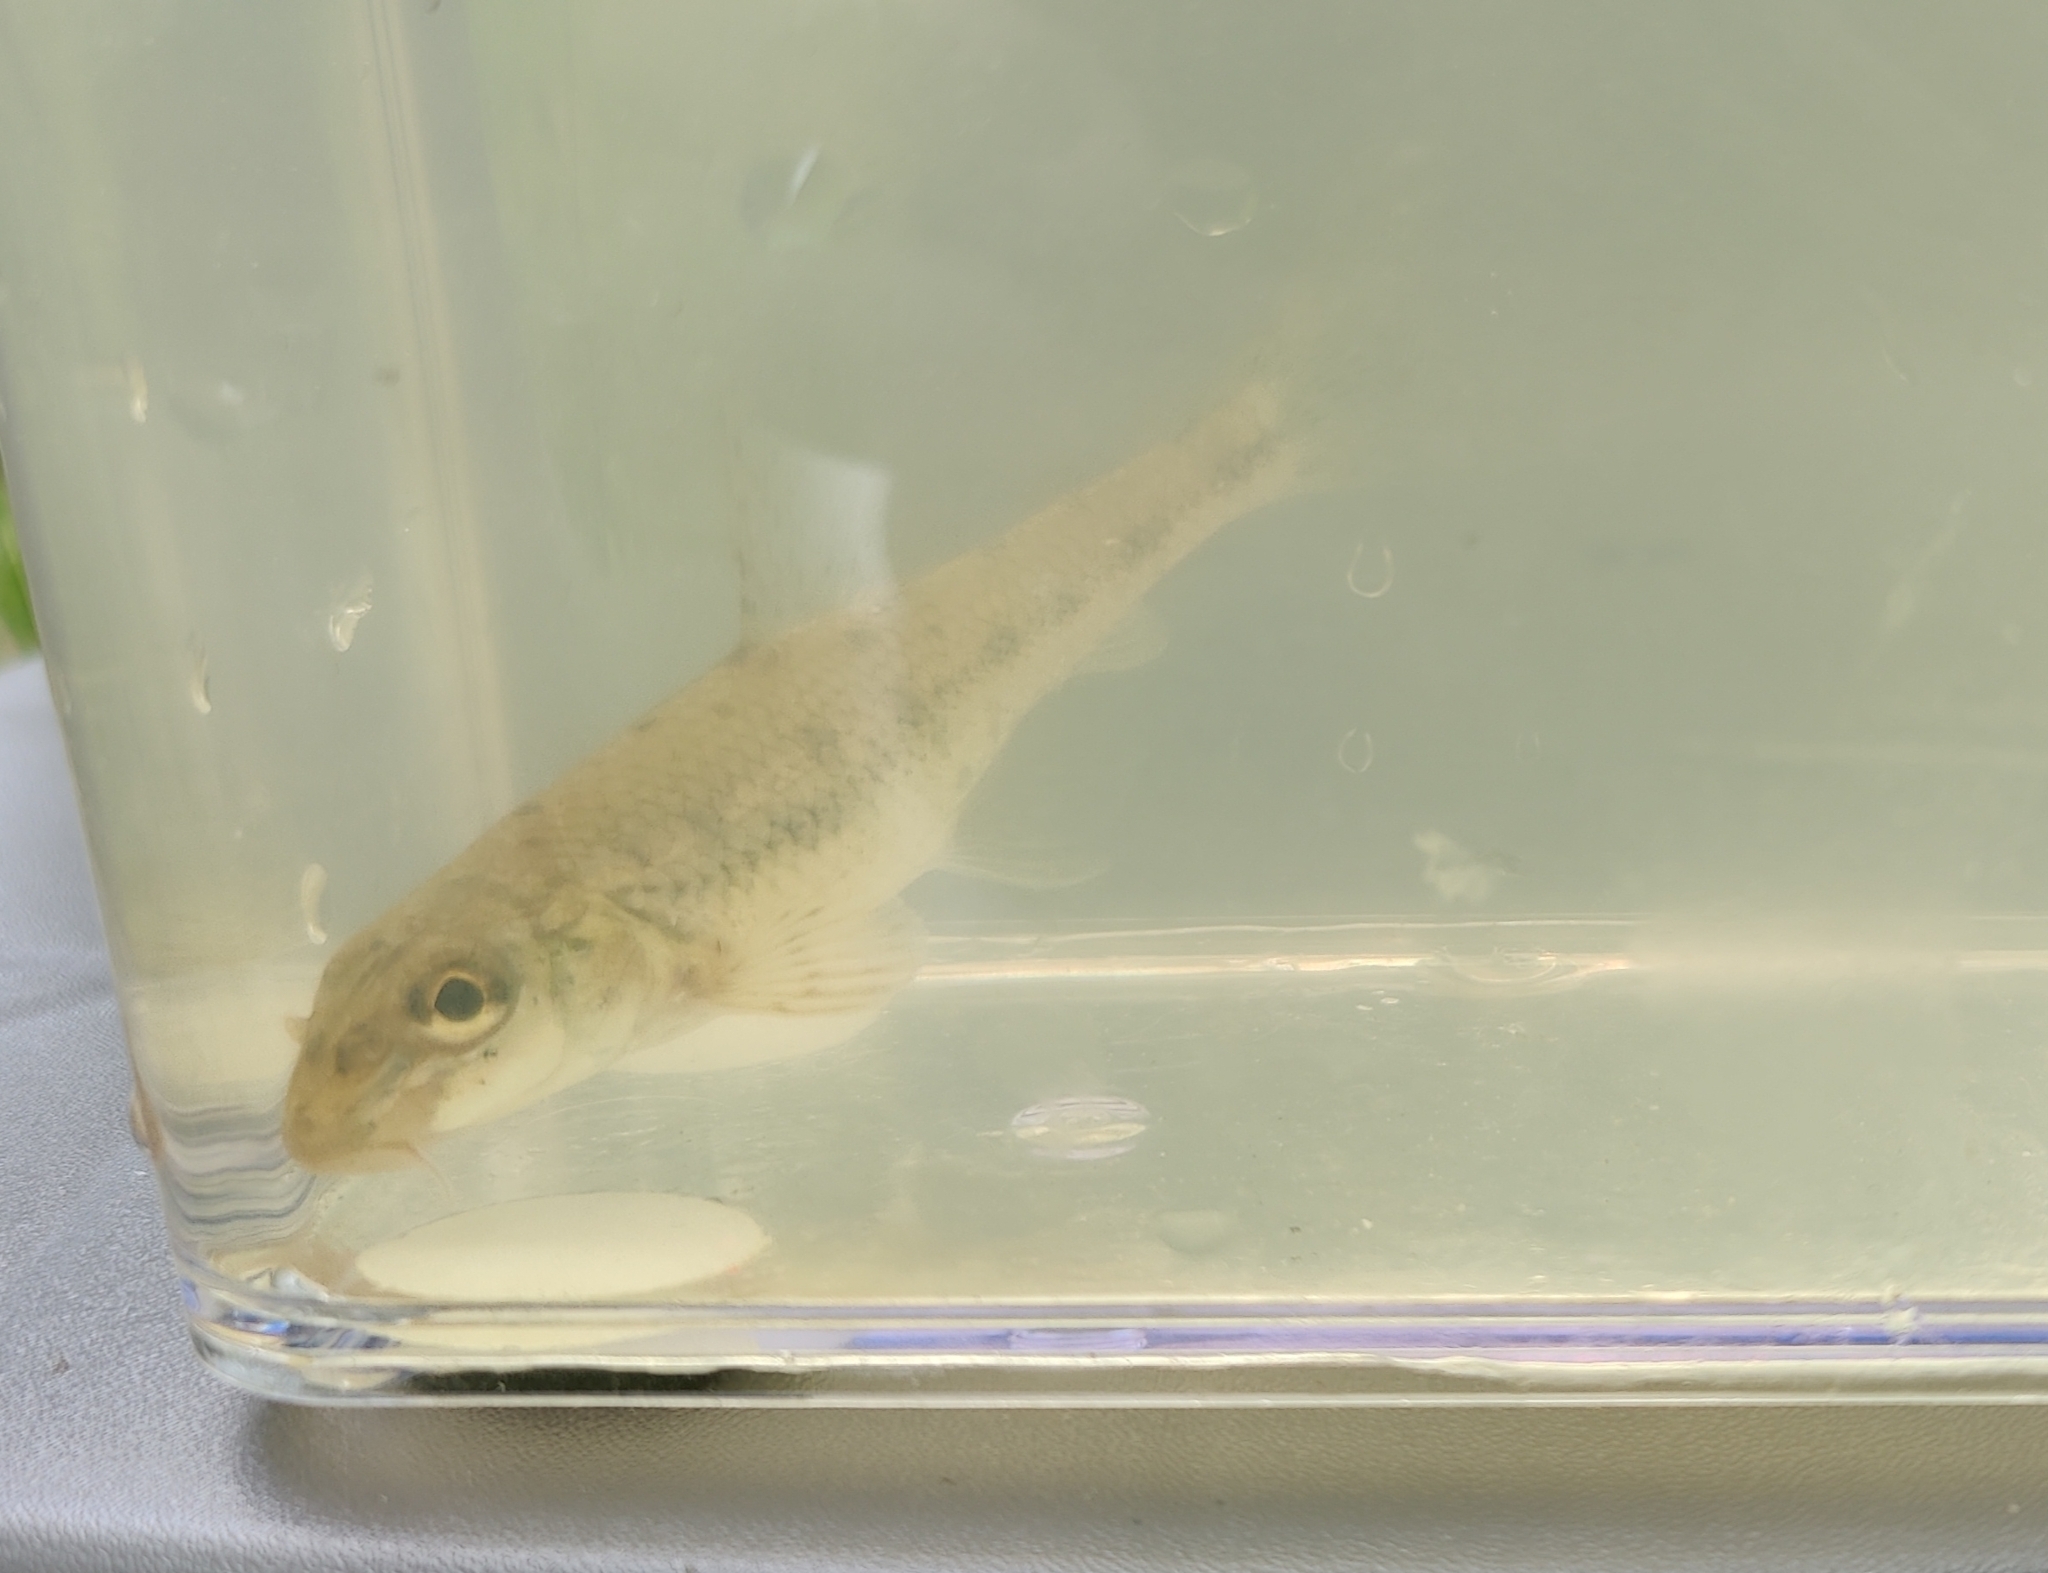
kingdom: Animalia
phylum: Chordata
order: Cypriniformes
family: Cyprinidae
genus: Gobio
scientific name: Gobio gobio
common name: Gudgeon
